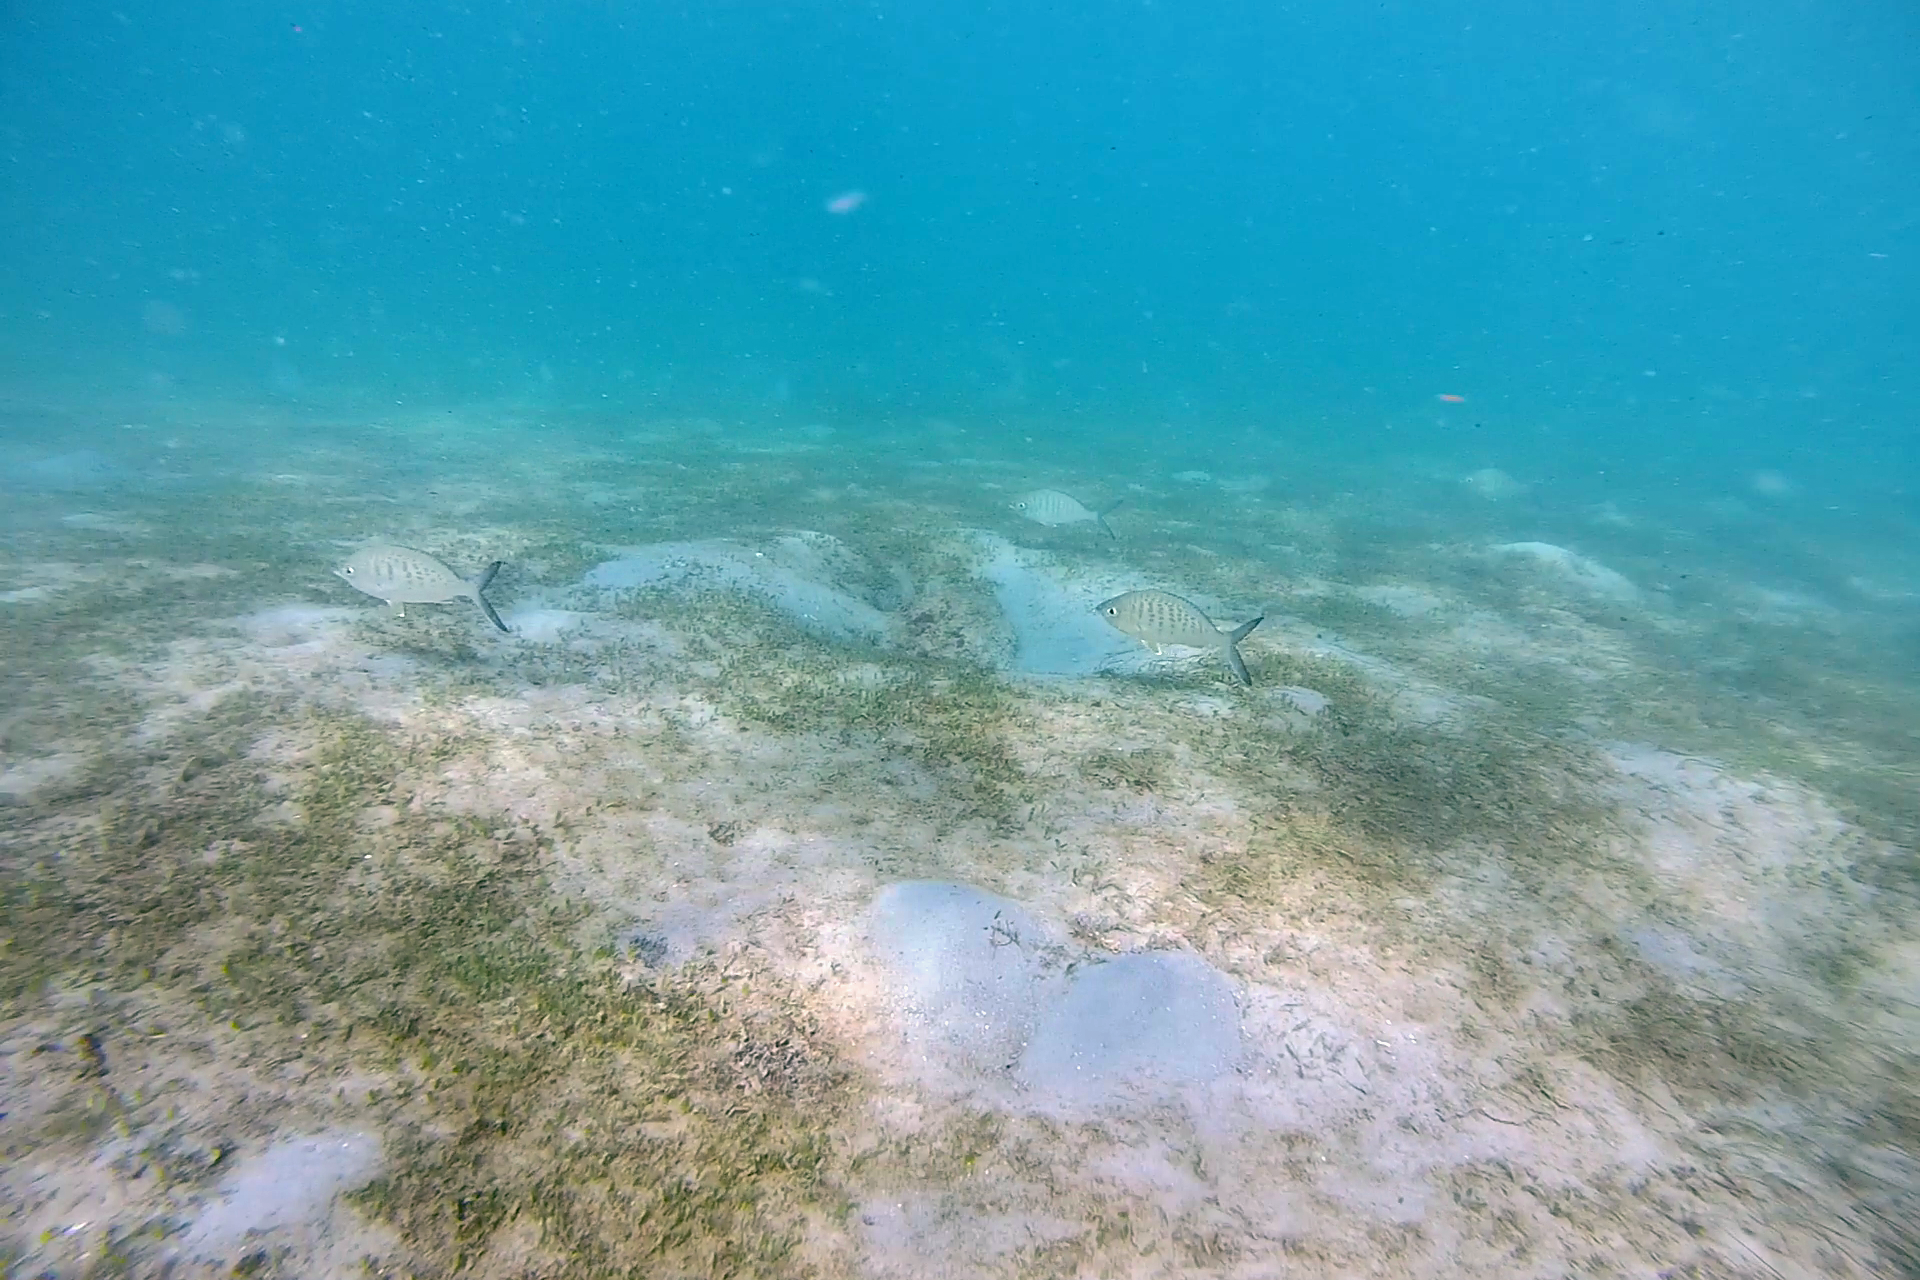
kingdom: Animalia
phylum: Chordata
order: Perciformes
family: Gerreidae
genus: Gerres
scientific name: Gerres cinereus
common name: Hedow
